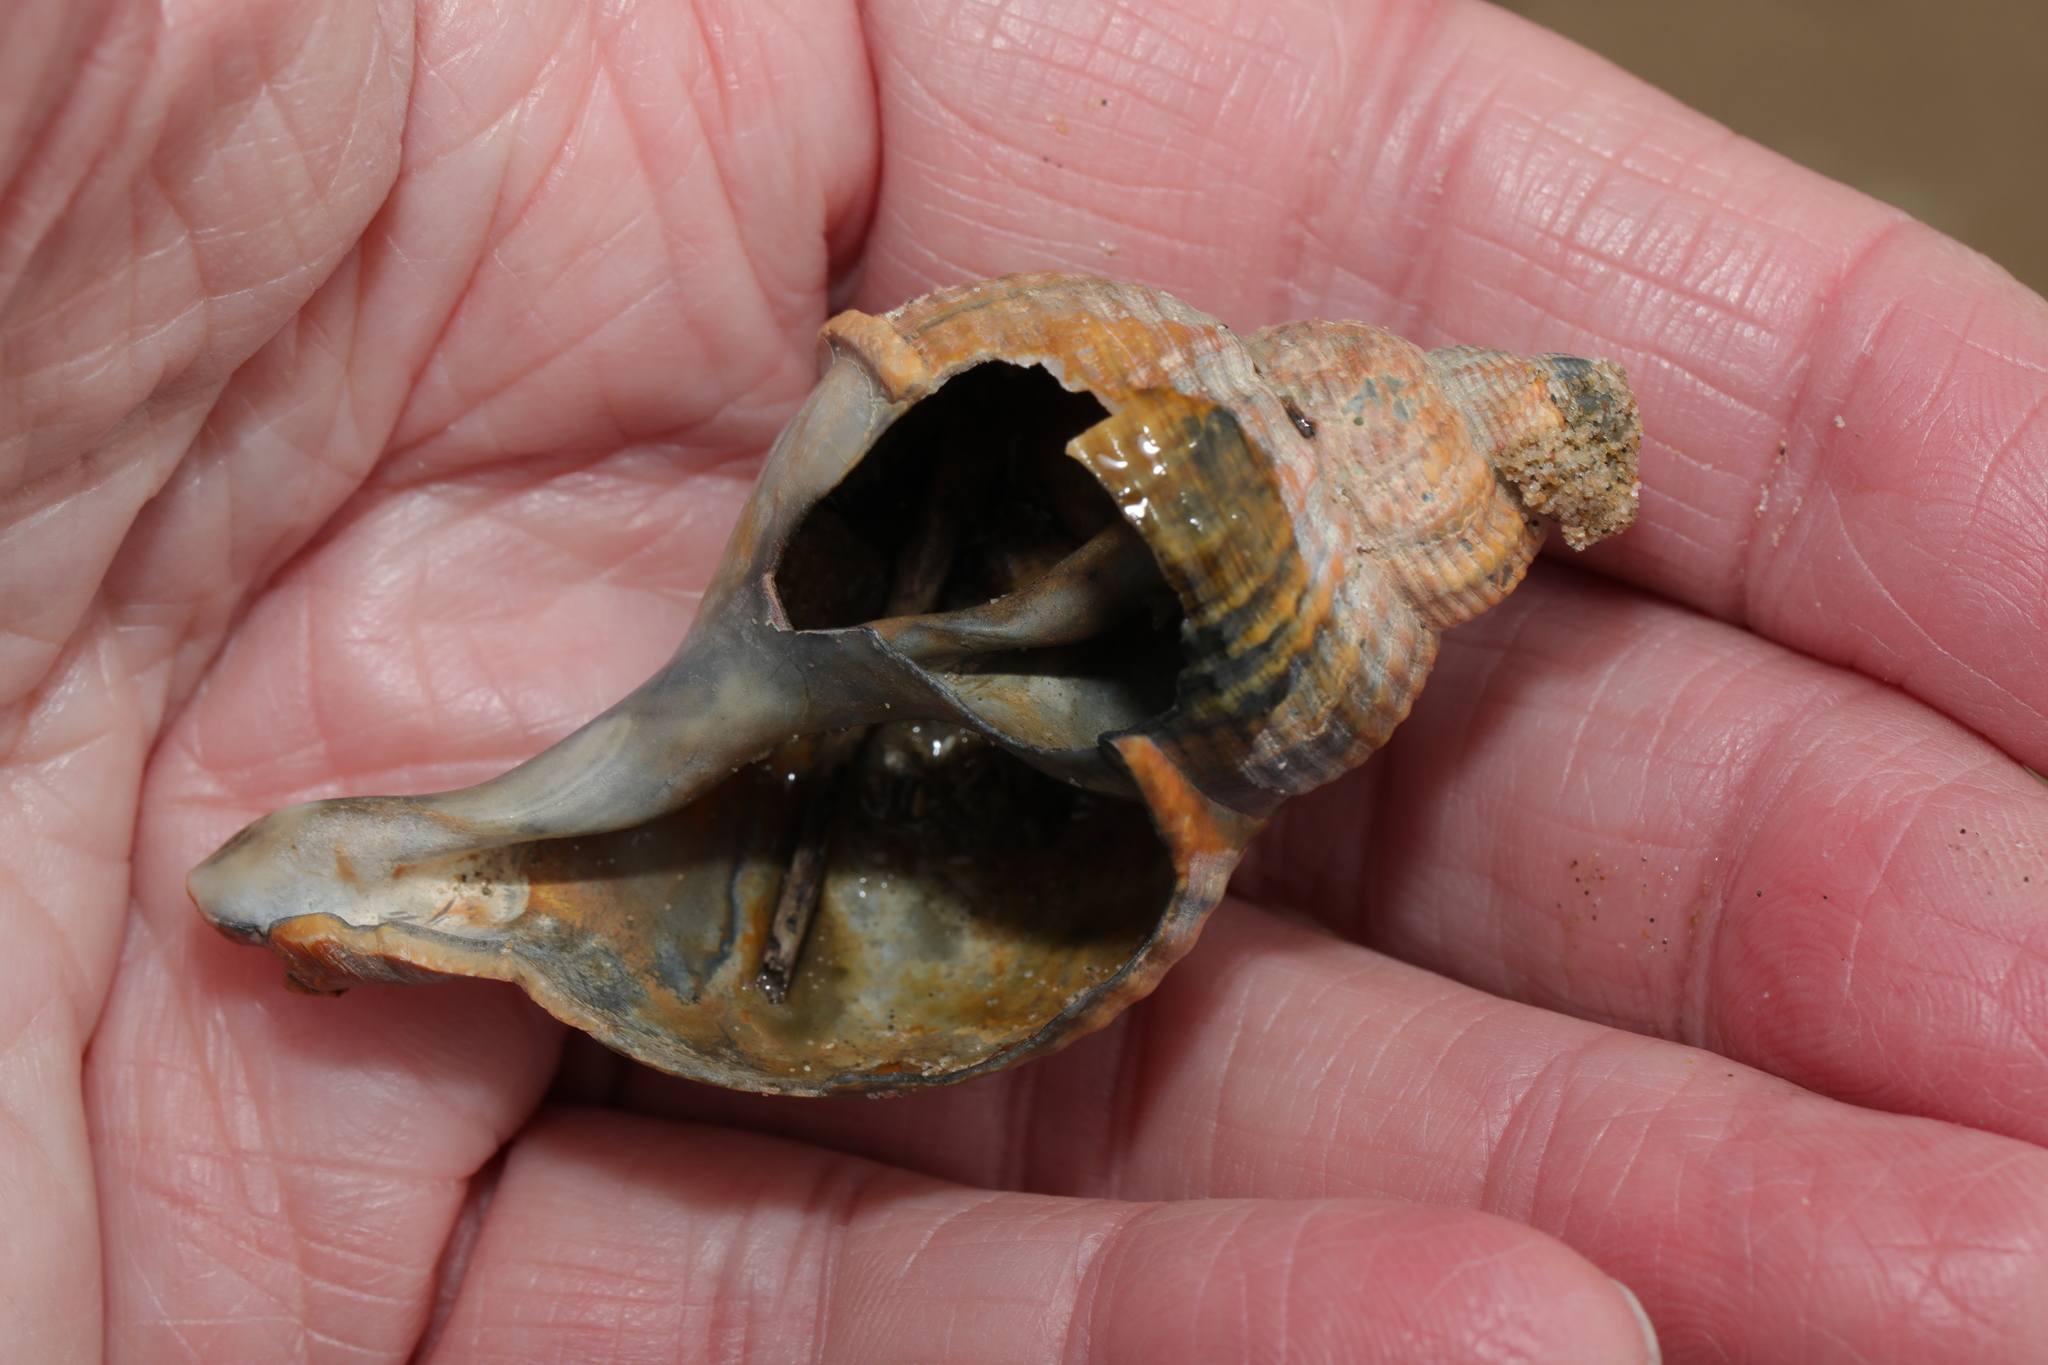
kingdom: Animalia
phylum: Mollusca
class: Gastropoda
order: Neogastropoda
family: Buccinidae
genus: Buccinum
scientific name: Buccinum undatum
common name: Common whelk
